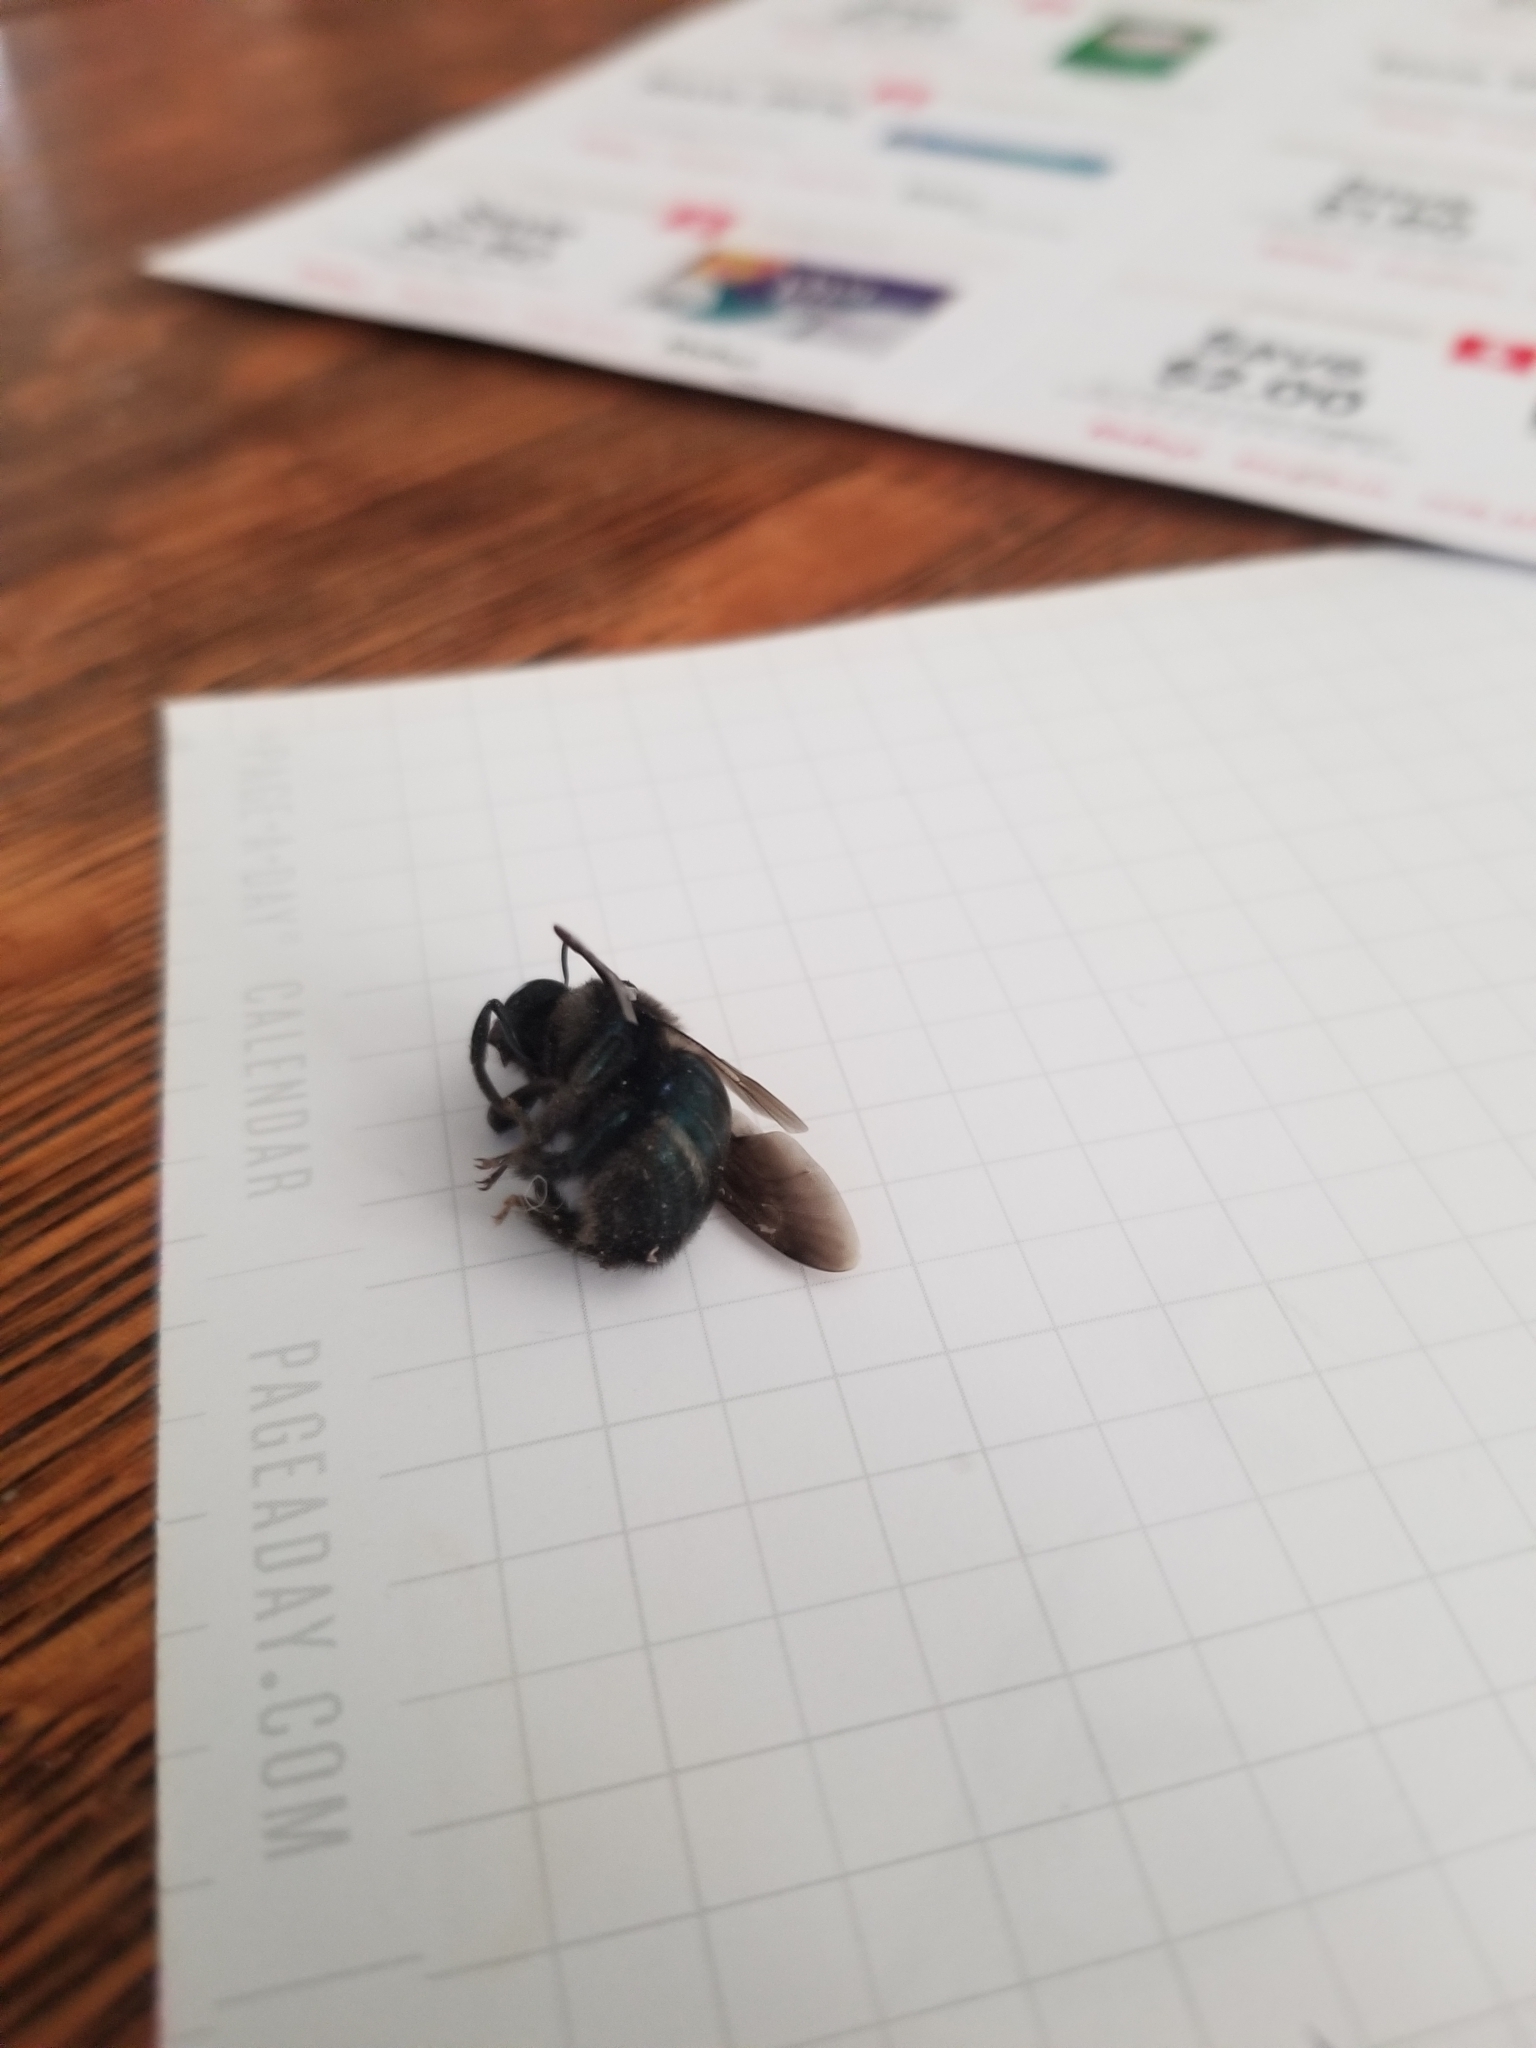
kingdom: Animalia
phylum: Arthropoda
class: Insecta
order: Hymenoptera
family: Apidae
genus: Xylocopa
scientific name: Xylocopa californica
